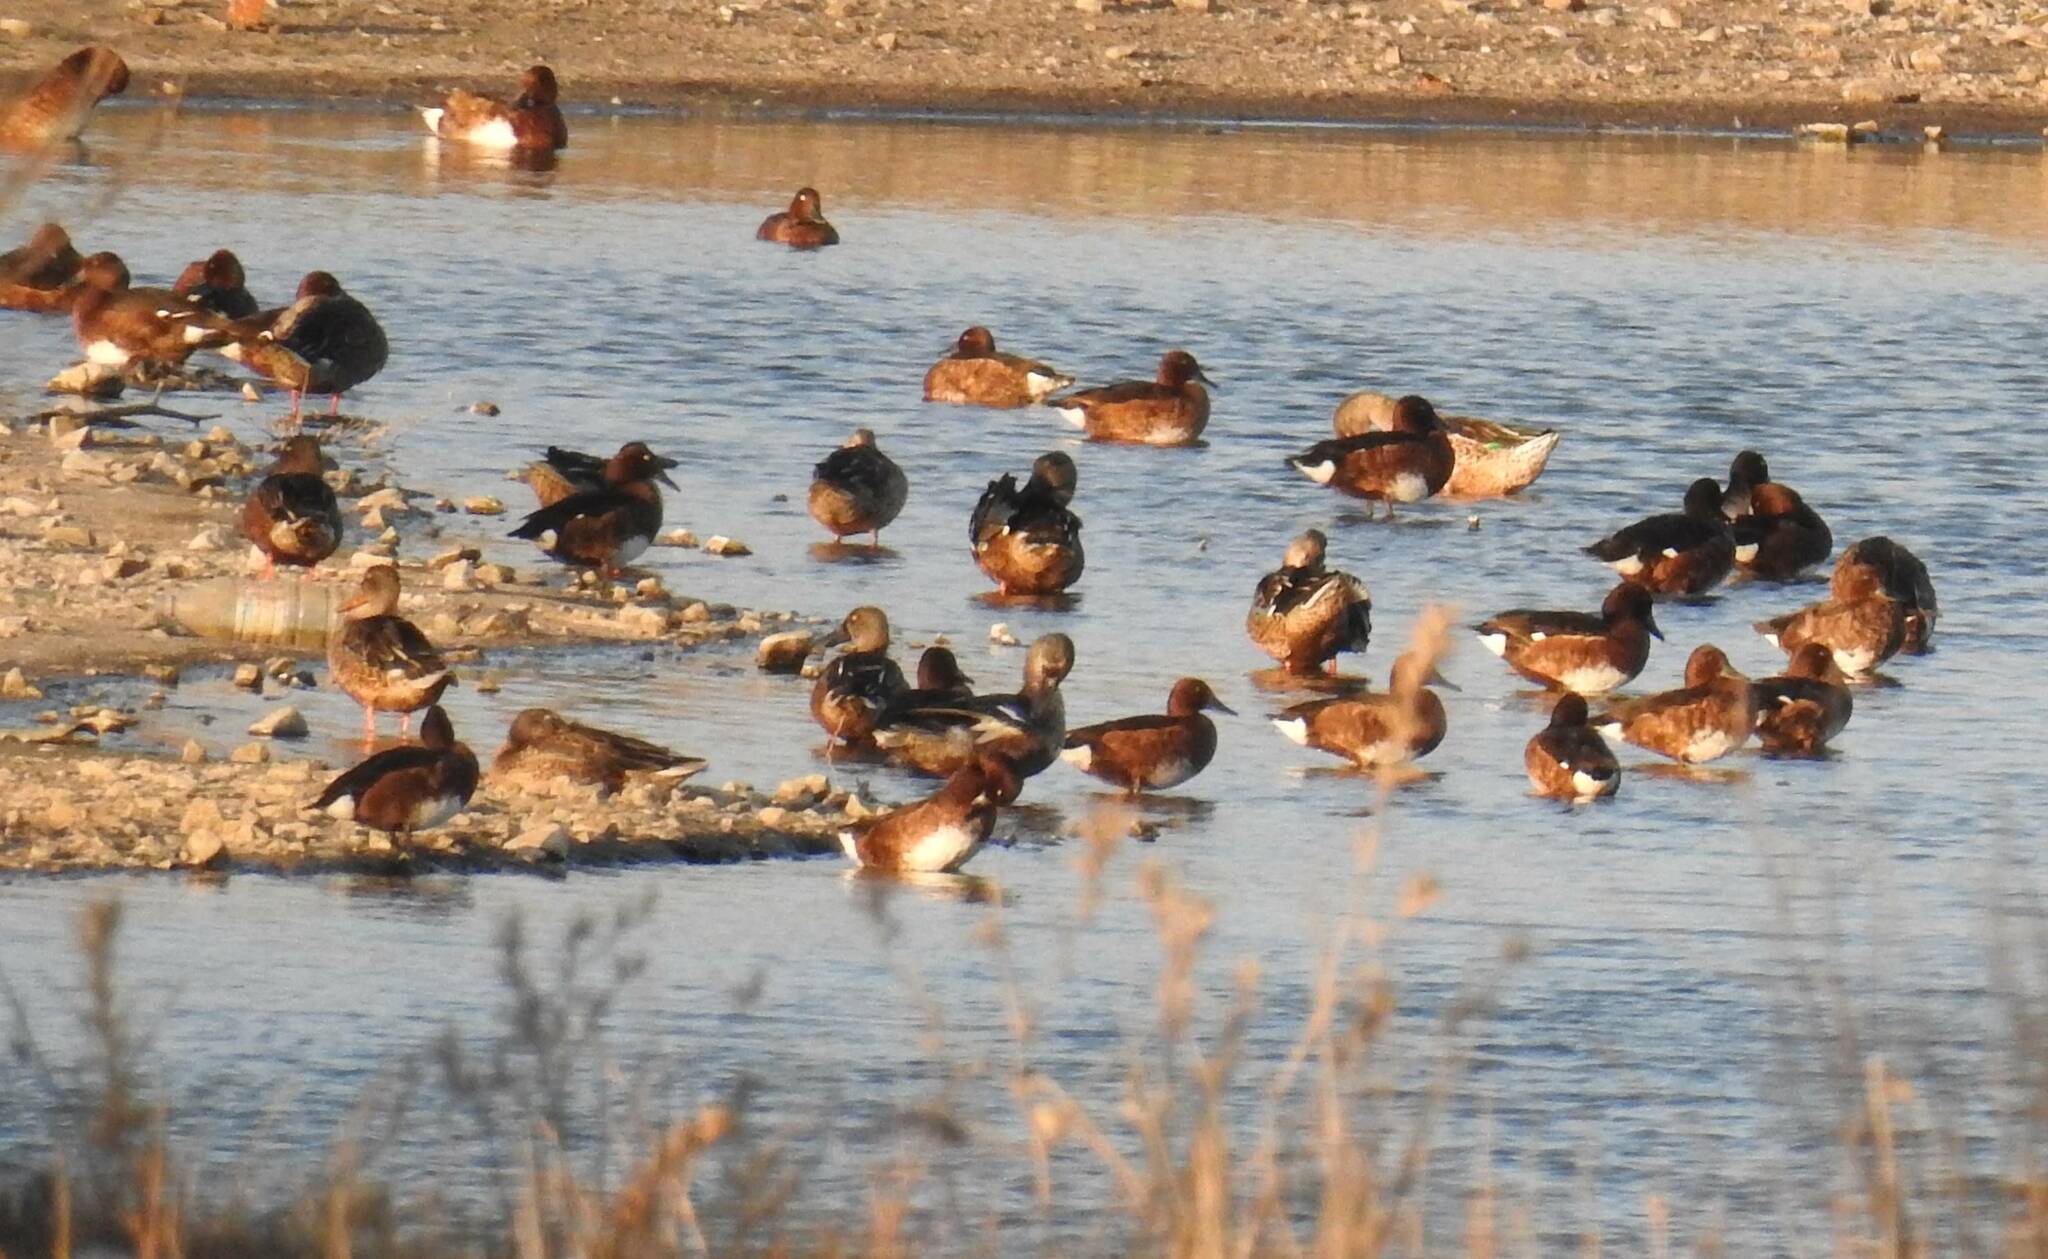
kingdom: Animalia
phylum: Chordata
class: Aves
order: Anseriformes
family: Anatidae
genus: Aythya
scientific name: Aythya nyroca
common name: Ferruginous duck
